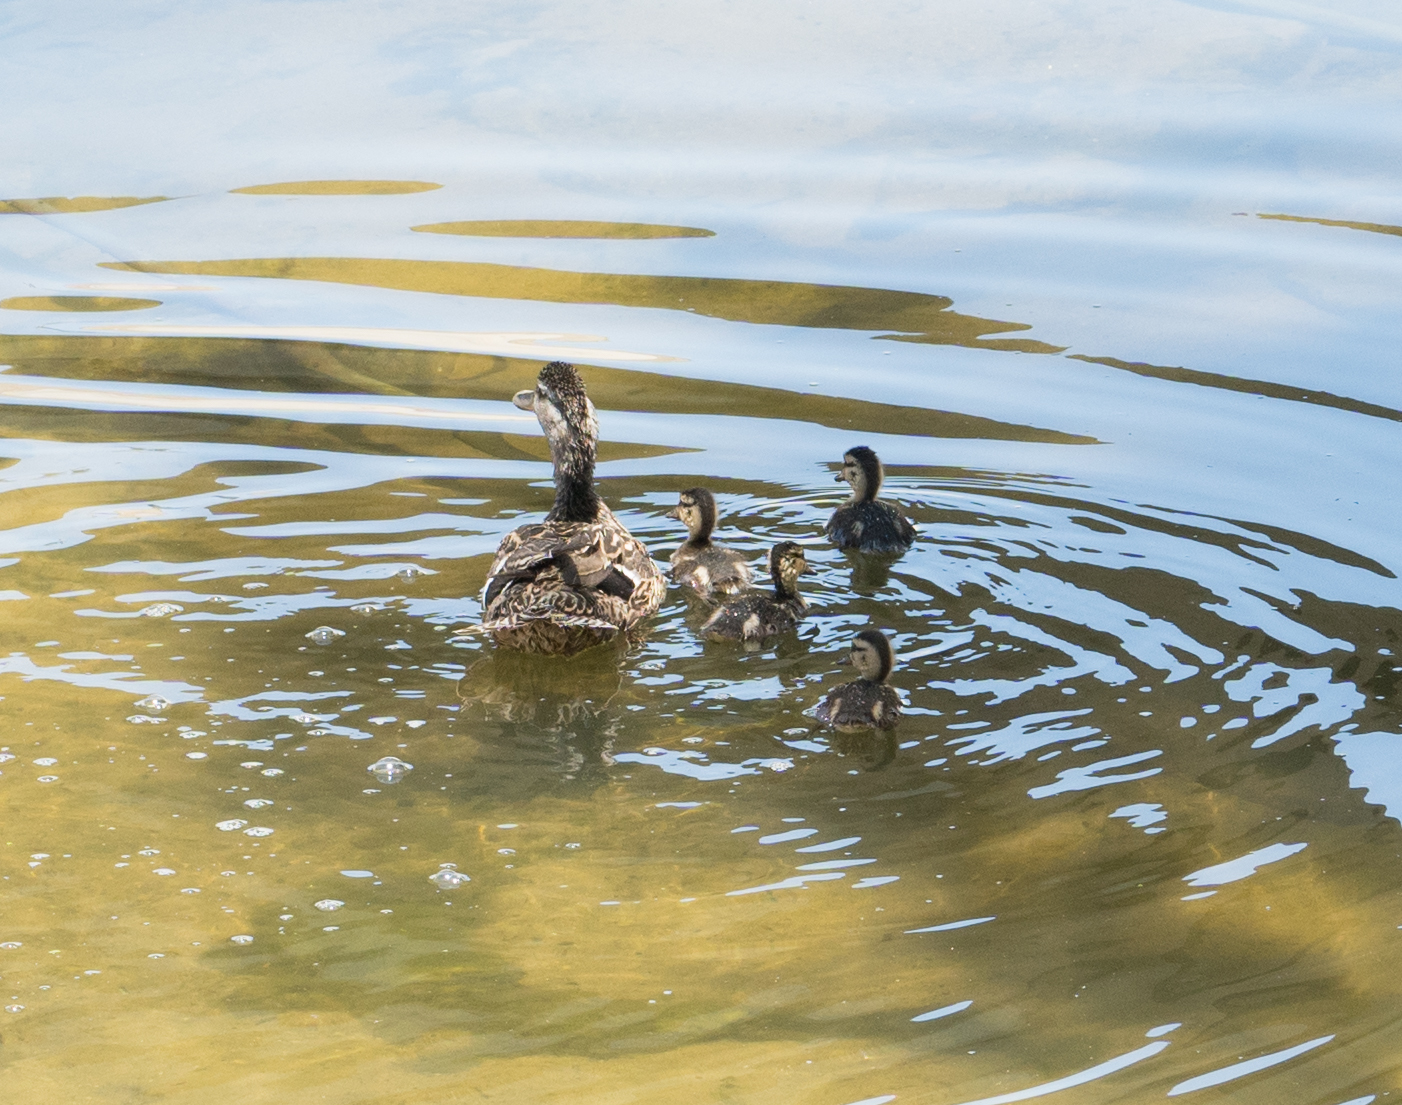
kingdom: Animalia
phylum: Chordata
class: Aves
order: Anseriformes
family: Anatidae
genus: Anas
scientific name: Anas platyrhynchos
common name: Mallard
